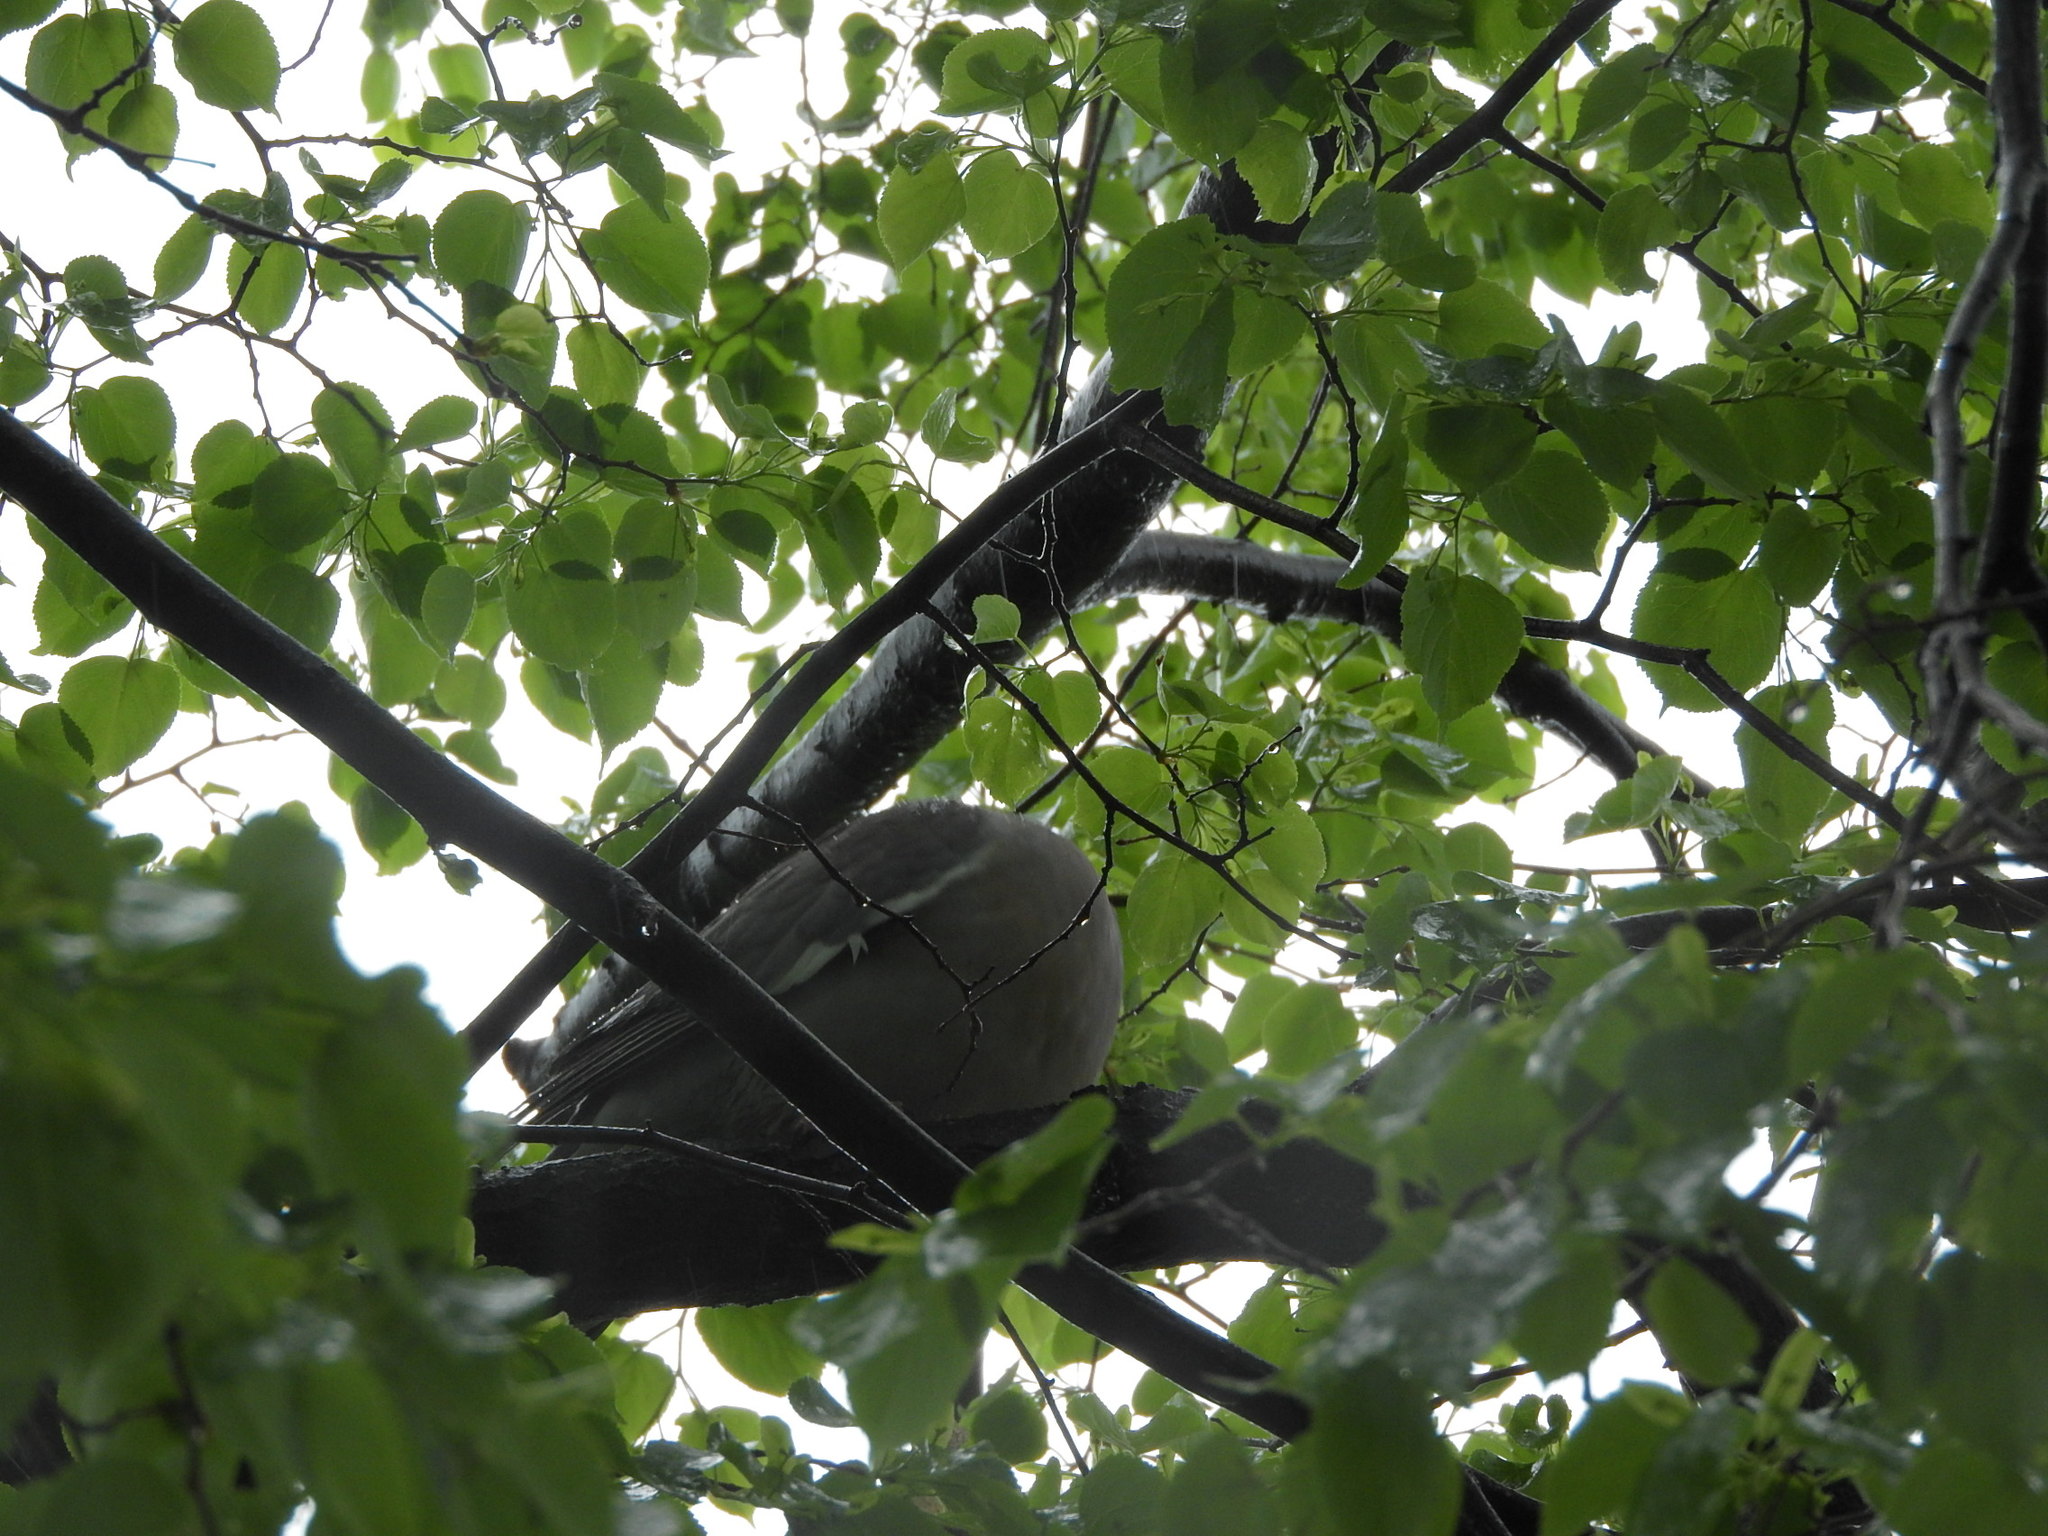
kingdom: Animalia
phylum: Chordata
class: Aves
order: Columbiformes
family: Columbidae
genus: Columba
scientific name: Columba palumbus
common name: Common wood pigeon
